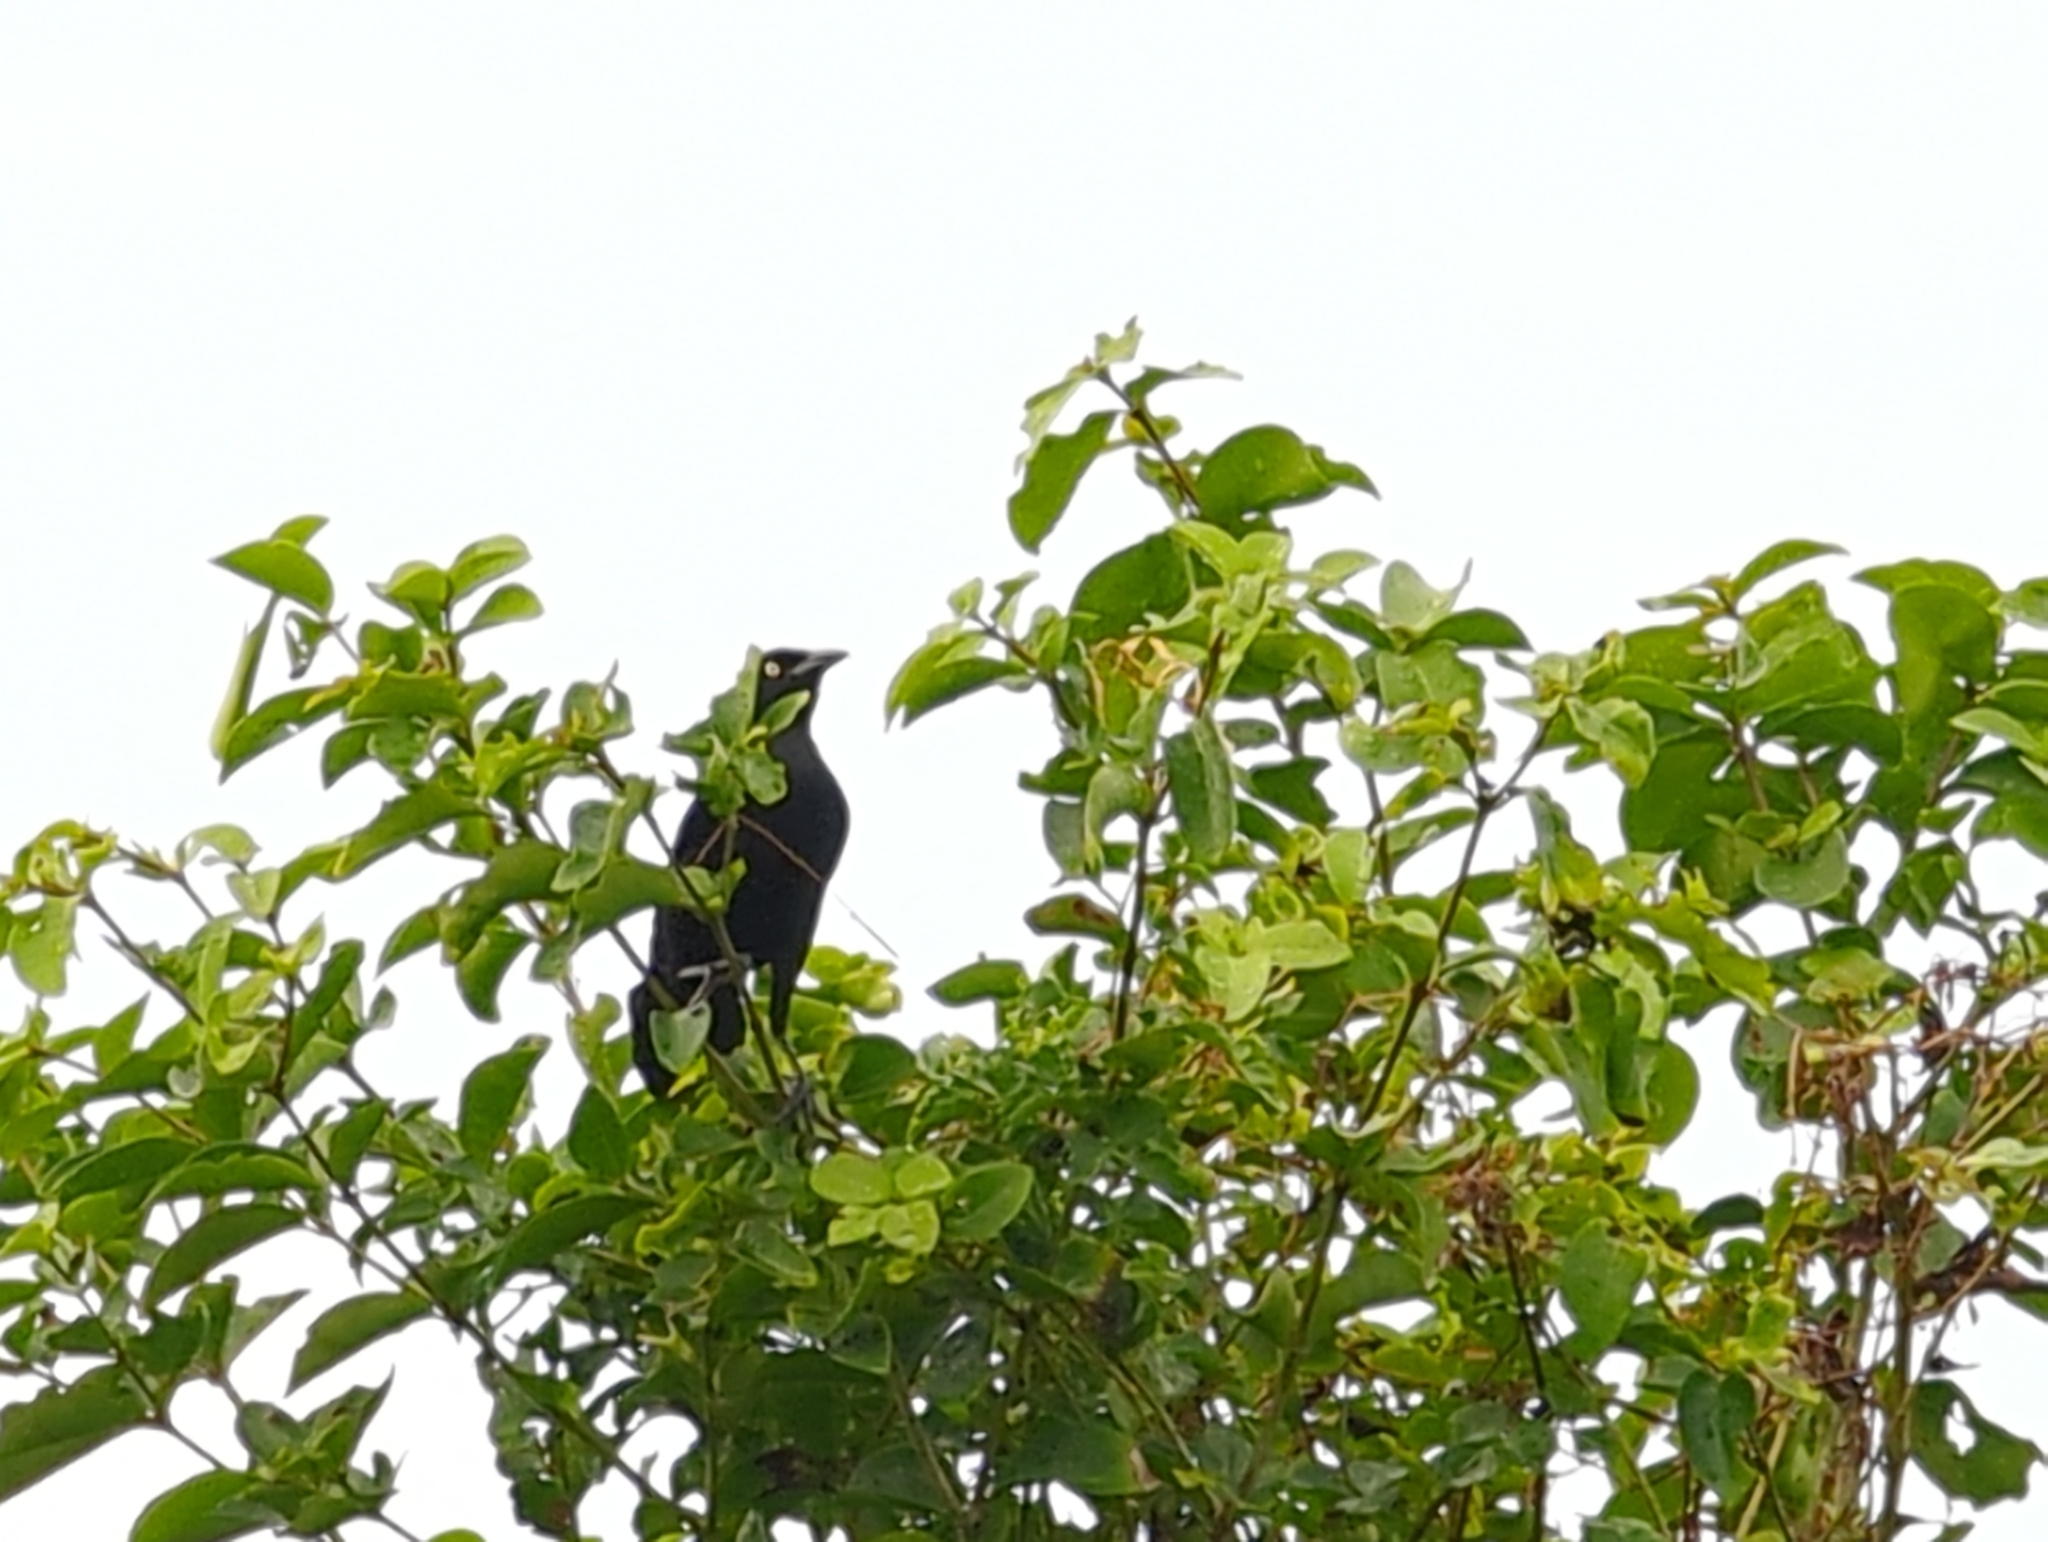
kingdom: Animalia
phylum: Chordata
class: Aves
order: Passeriformes
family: Icteridae
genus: Quiscalus
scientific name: Quiscalus niger
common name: Greater antillean grackle
